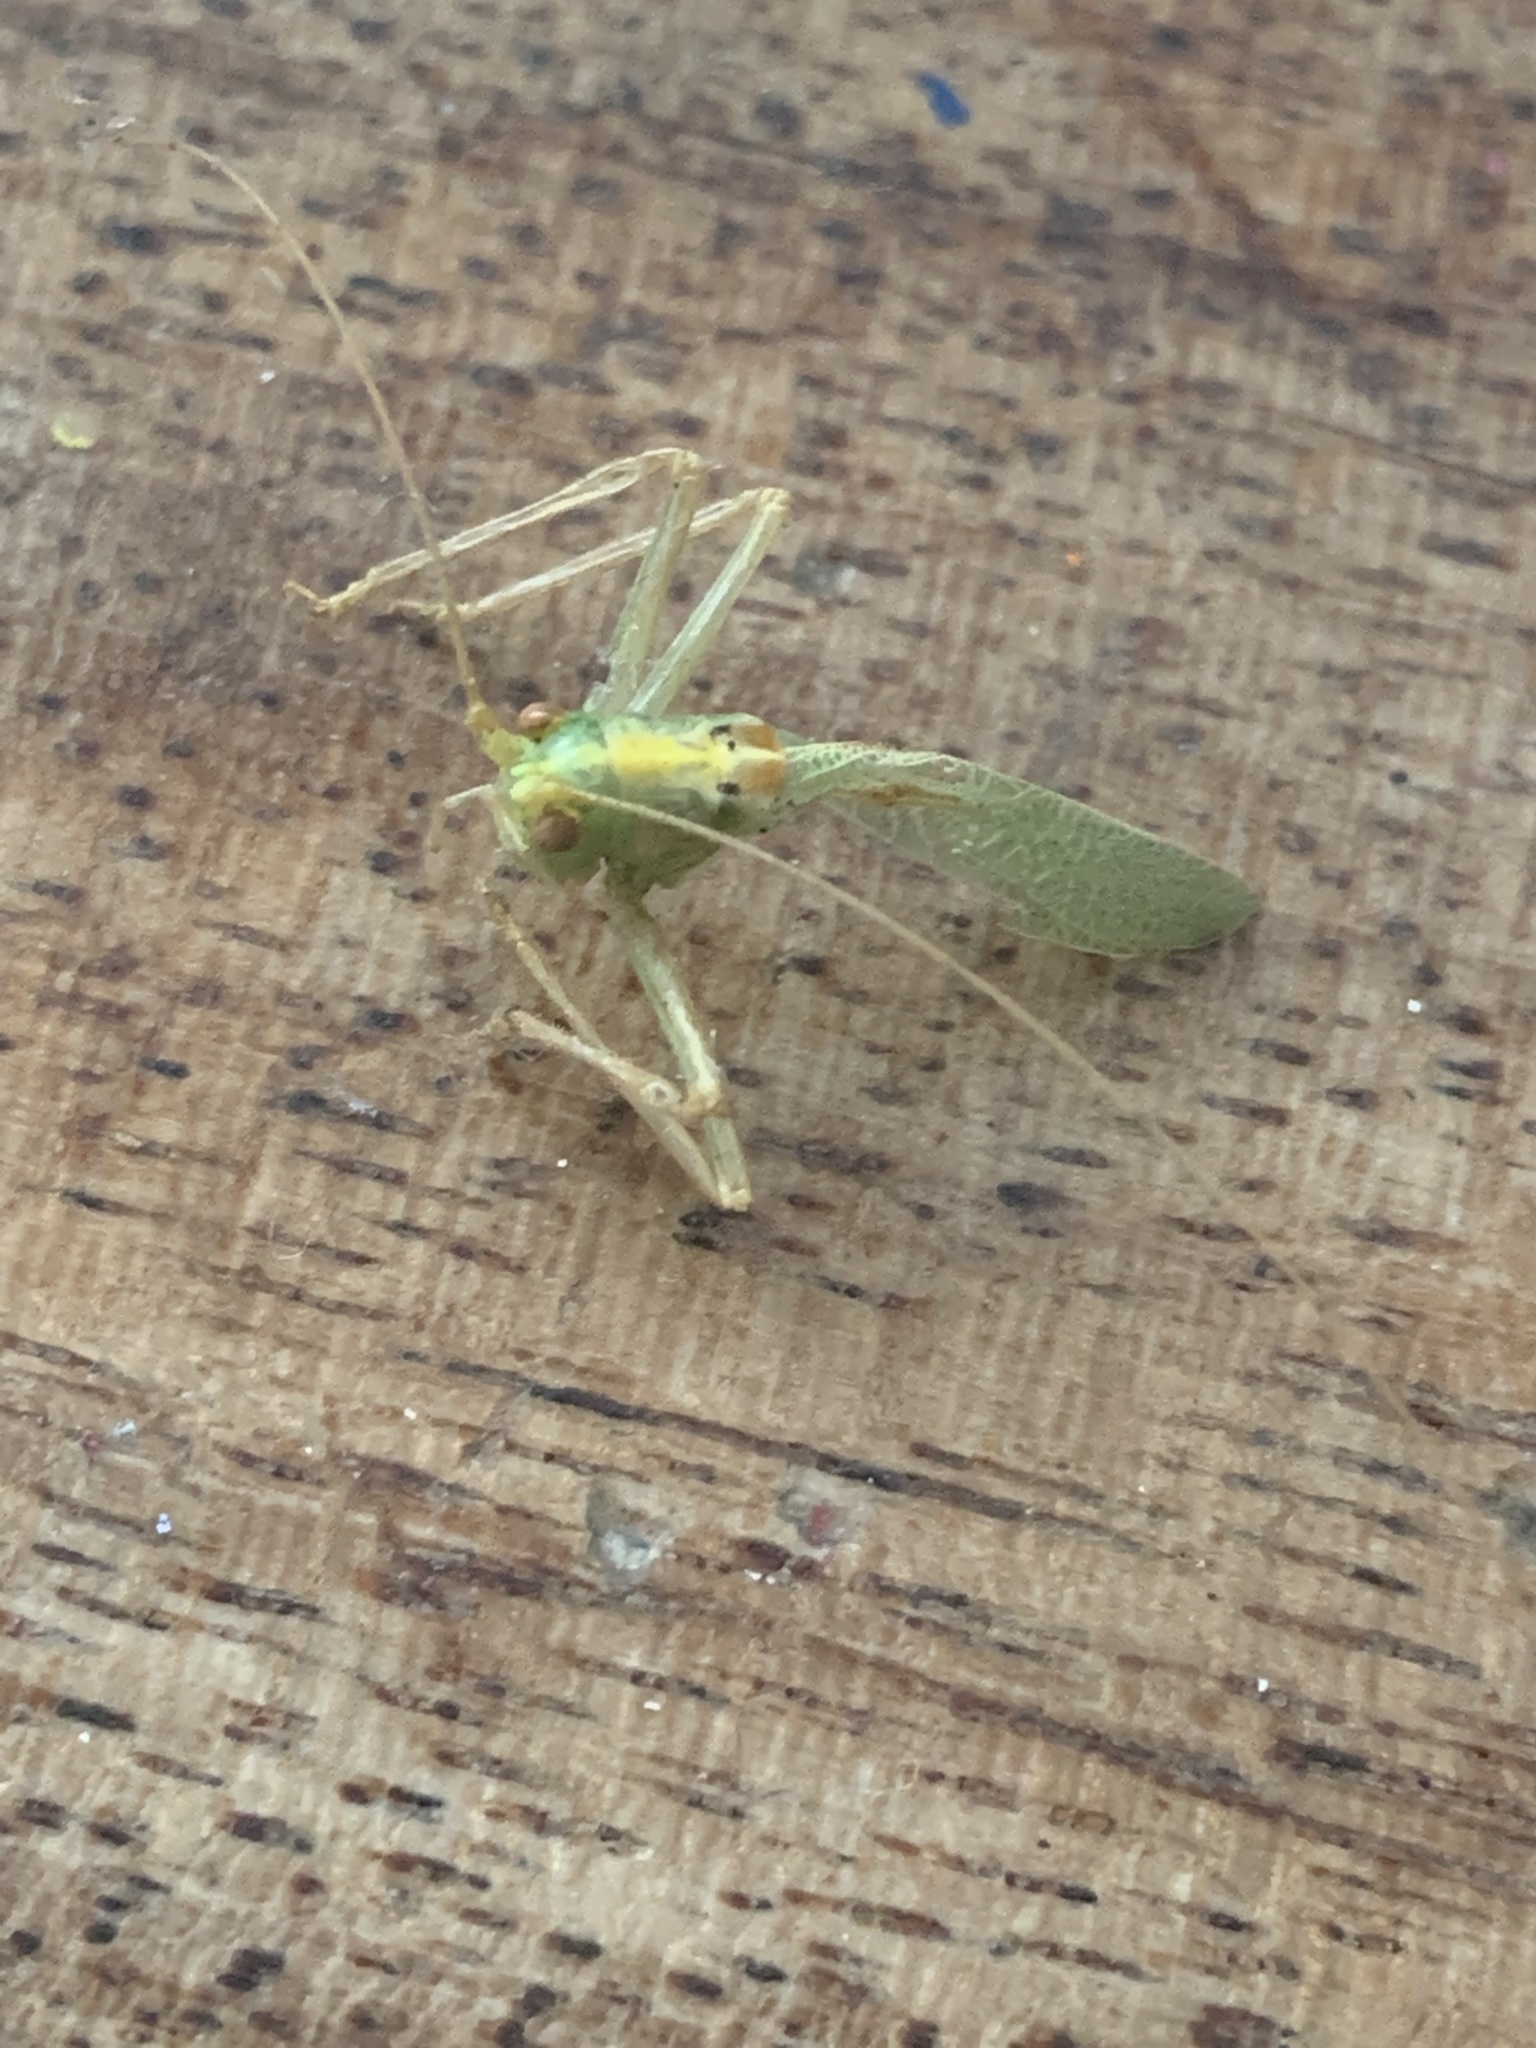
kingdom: Animalia
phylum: Arthropoda
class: Insecta
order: Orthoptera
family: Tettigoniidae
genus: Meconema
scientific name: Meconema thalassinum
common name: Oak bush-cricket
